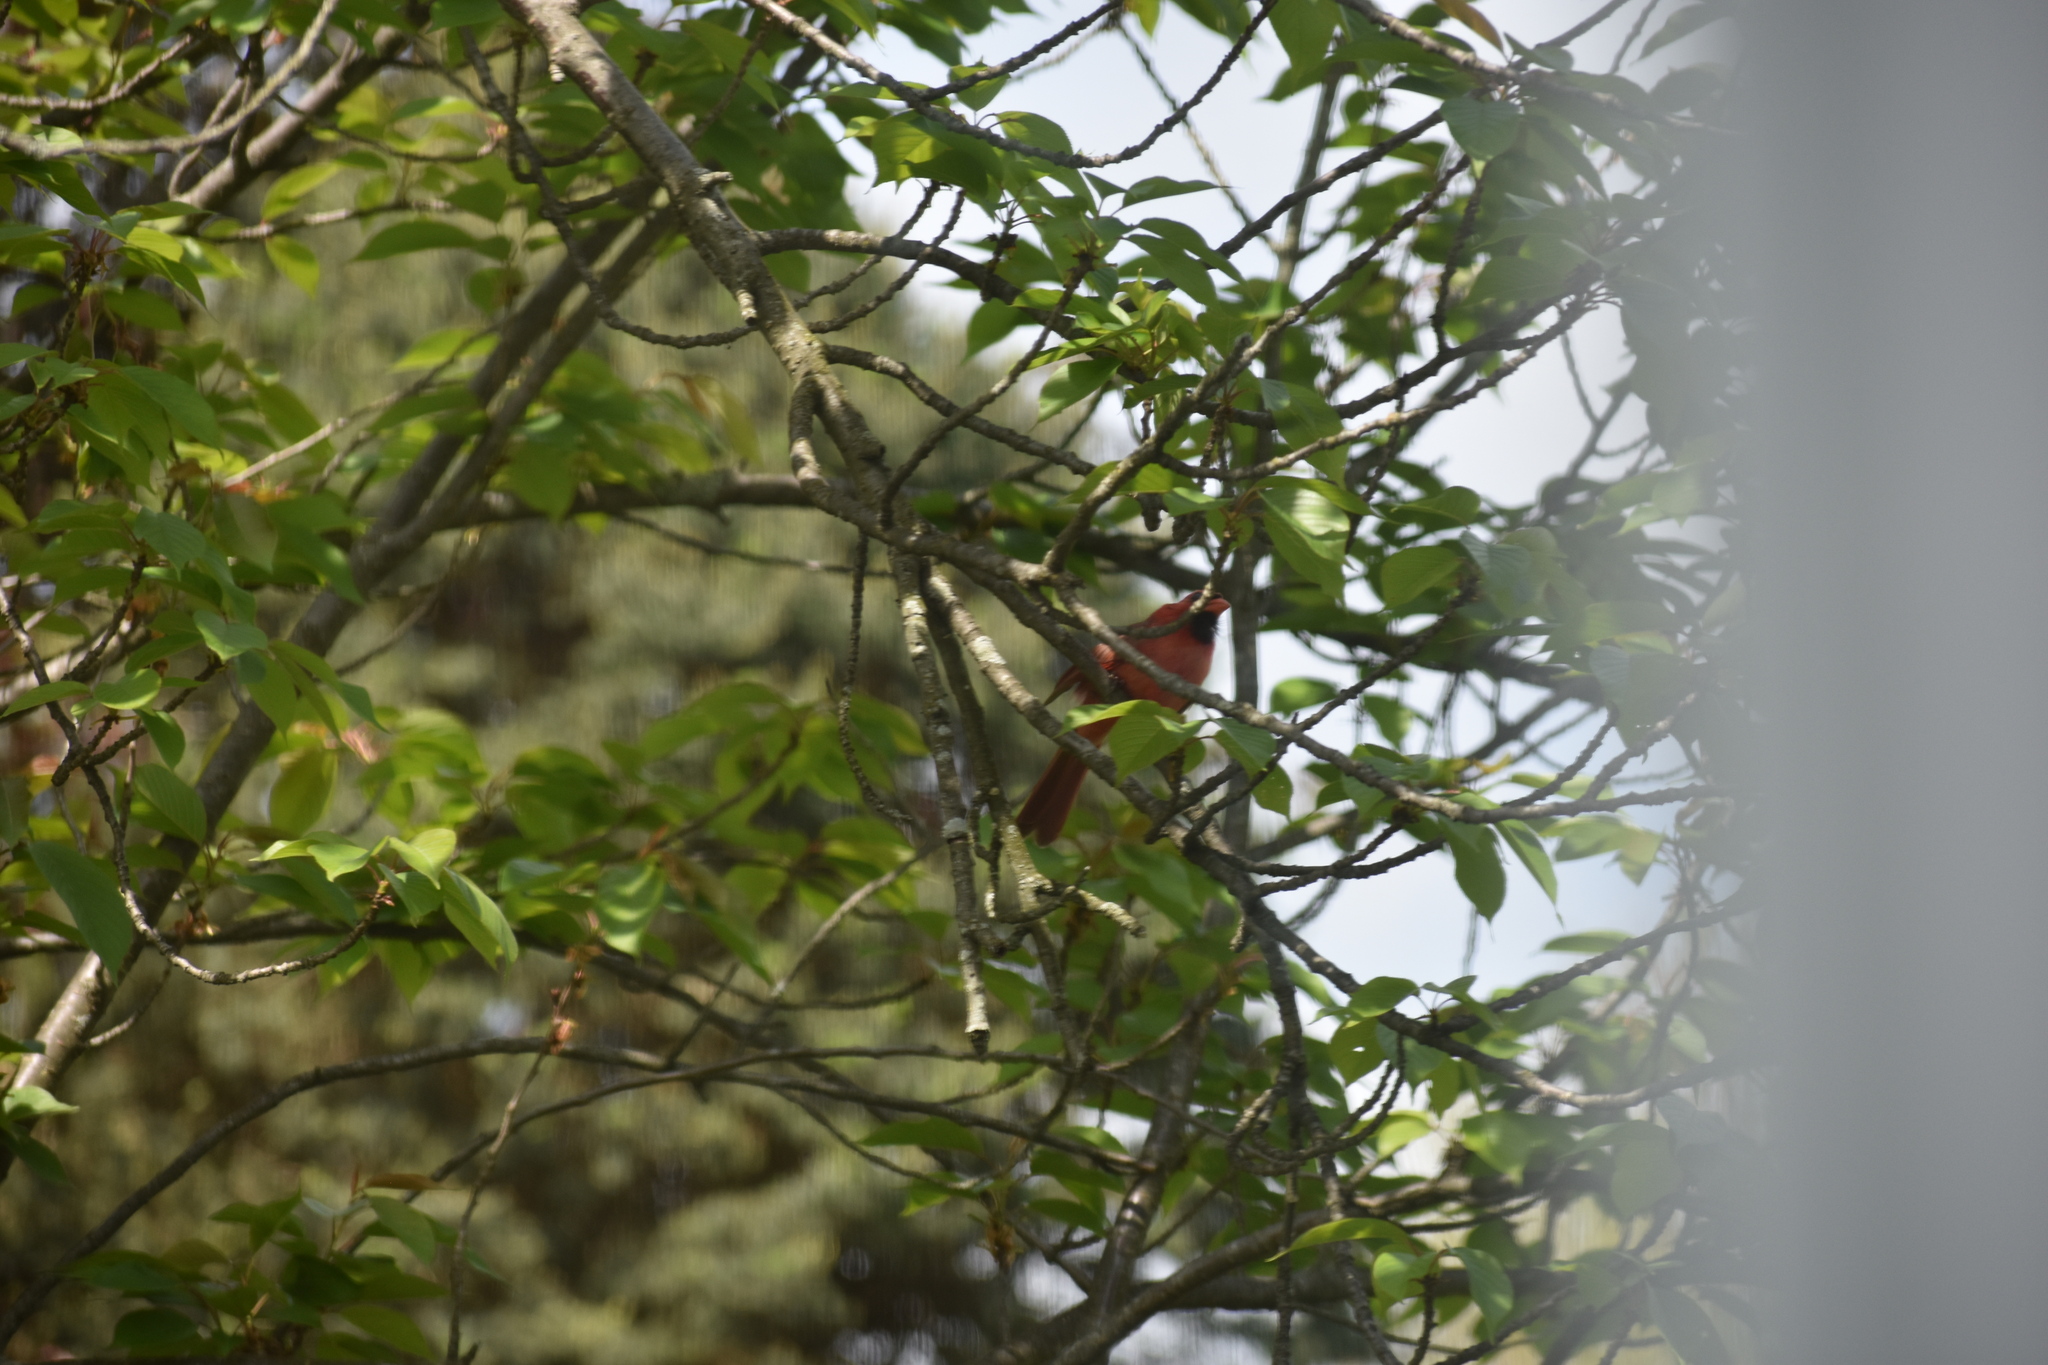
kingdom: Animalia
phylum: Chordata
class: Aves
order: Passeriformes
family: Cardinalidae
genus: Cardinalis
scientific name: Cardinalis cardinalis
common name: Northern cardinal
